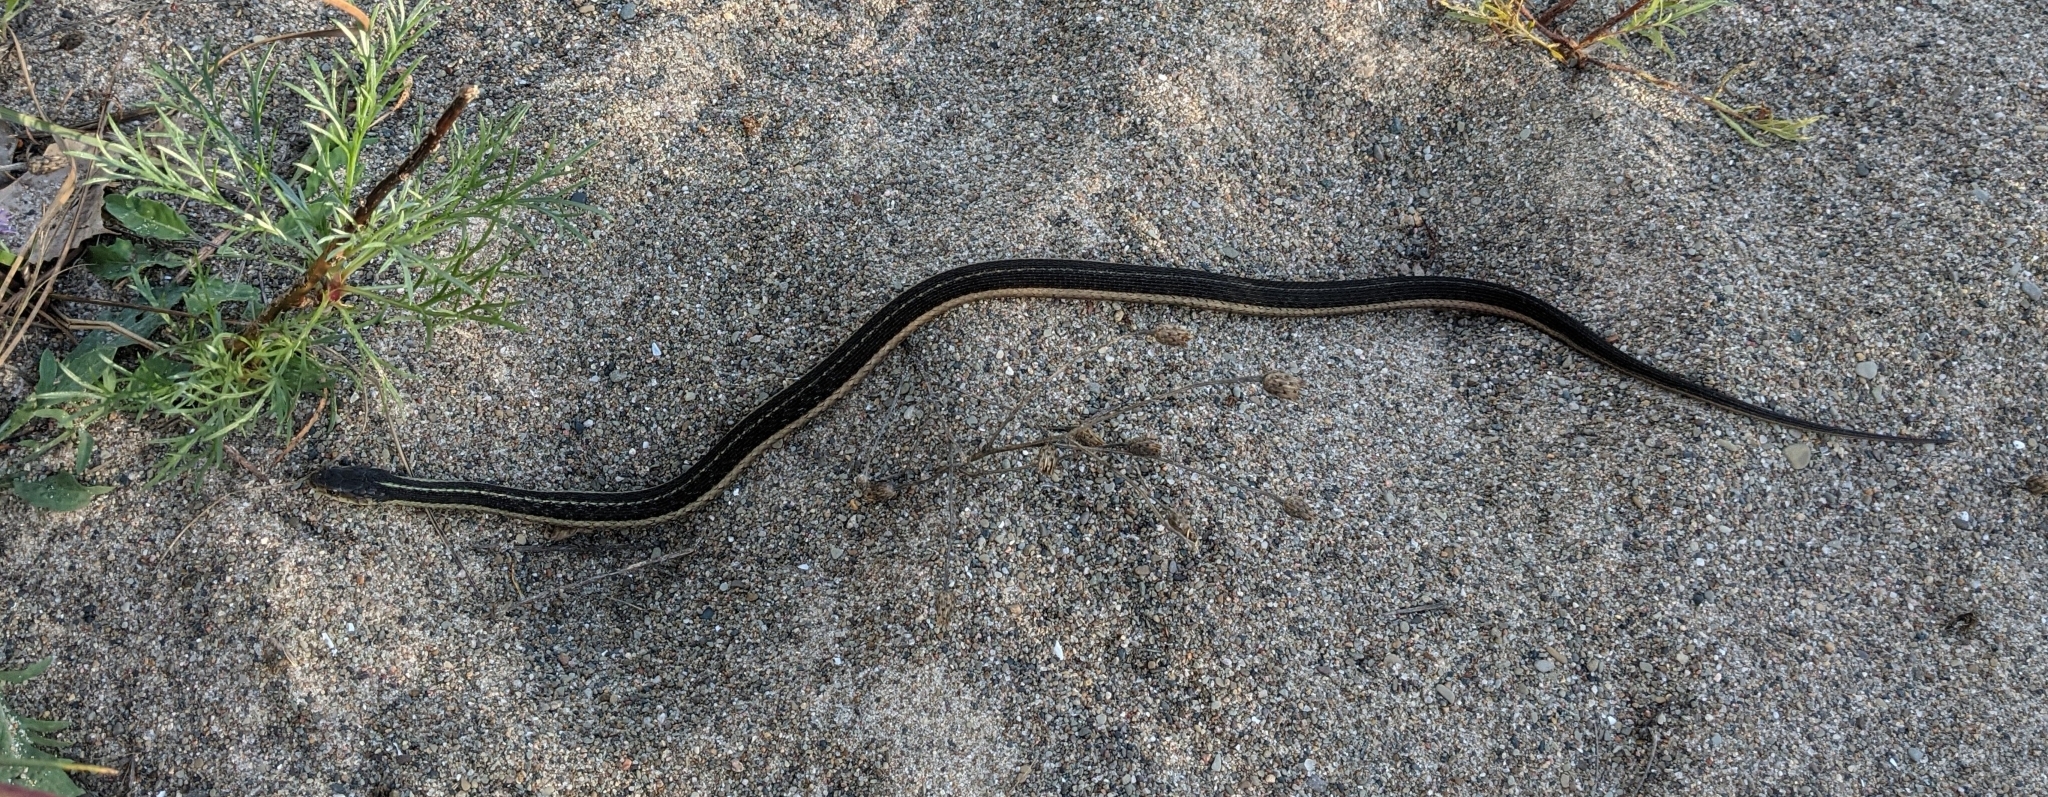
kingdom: Animalia
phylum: Chordata
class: Squamata
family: Colubridae
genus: Thamnophis
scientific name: Thamnophis sirtalis
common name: Common garter snake
